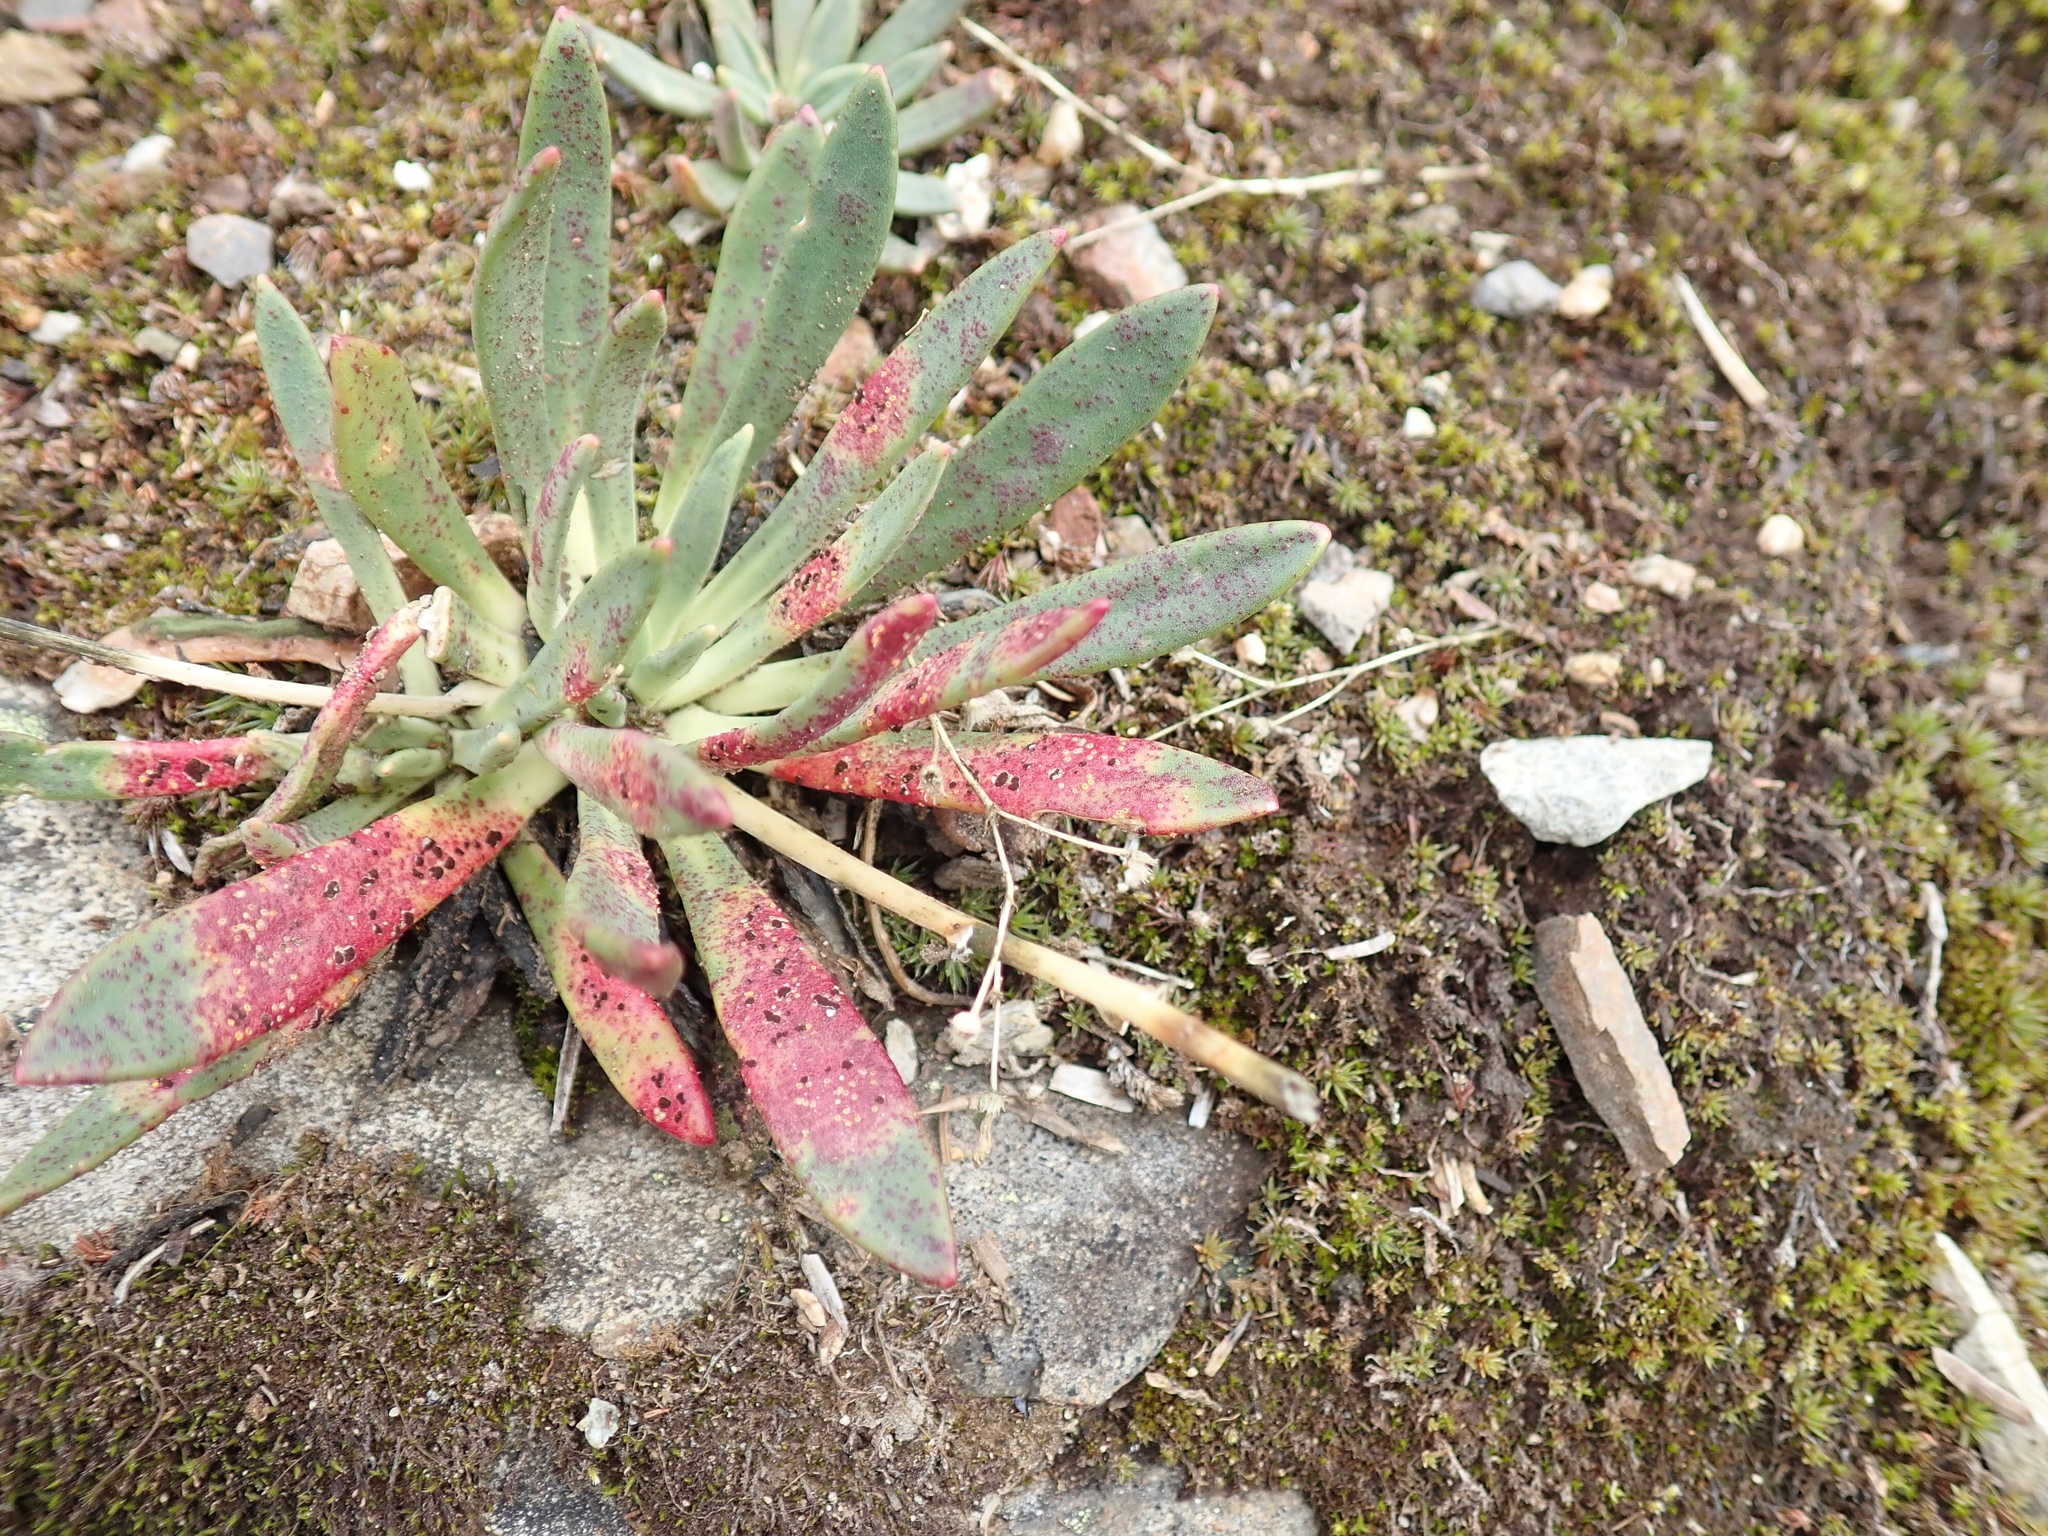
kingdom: Plantae
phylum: Tracheophyta
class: Magnoliopsida
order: Caryophyllales
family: Montiaceae
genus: Lewisia
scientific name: Lewisia columbiana
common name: Columbia lewisia
